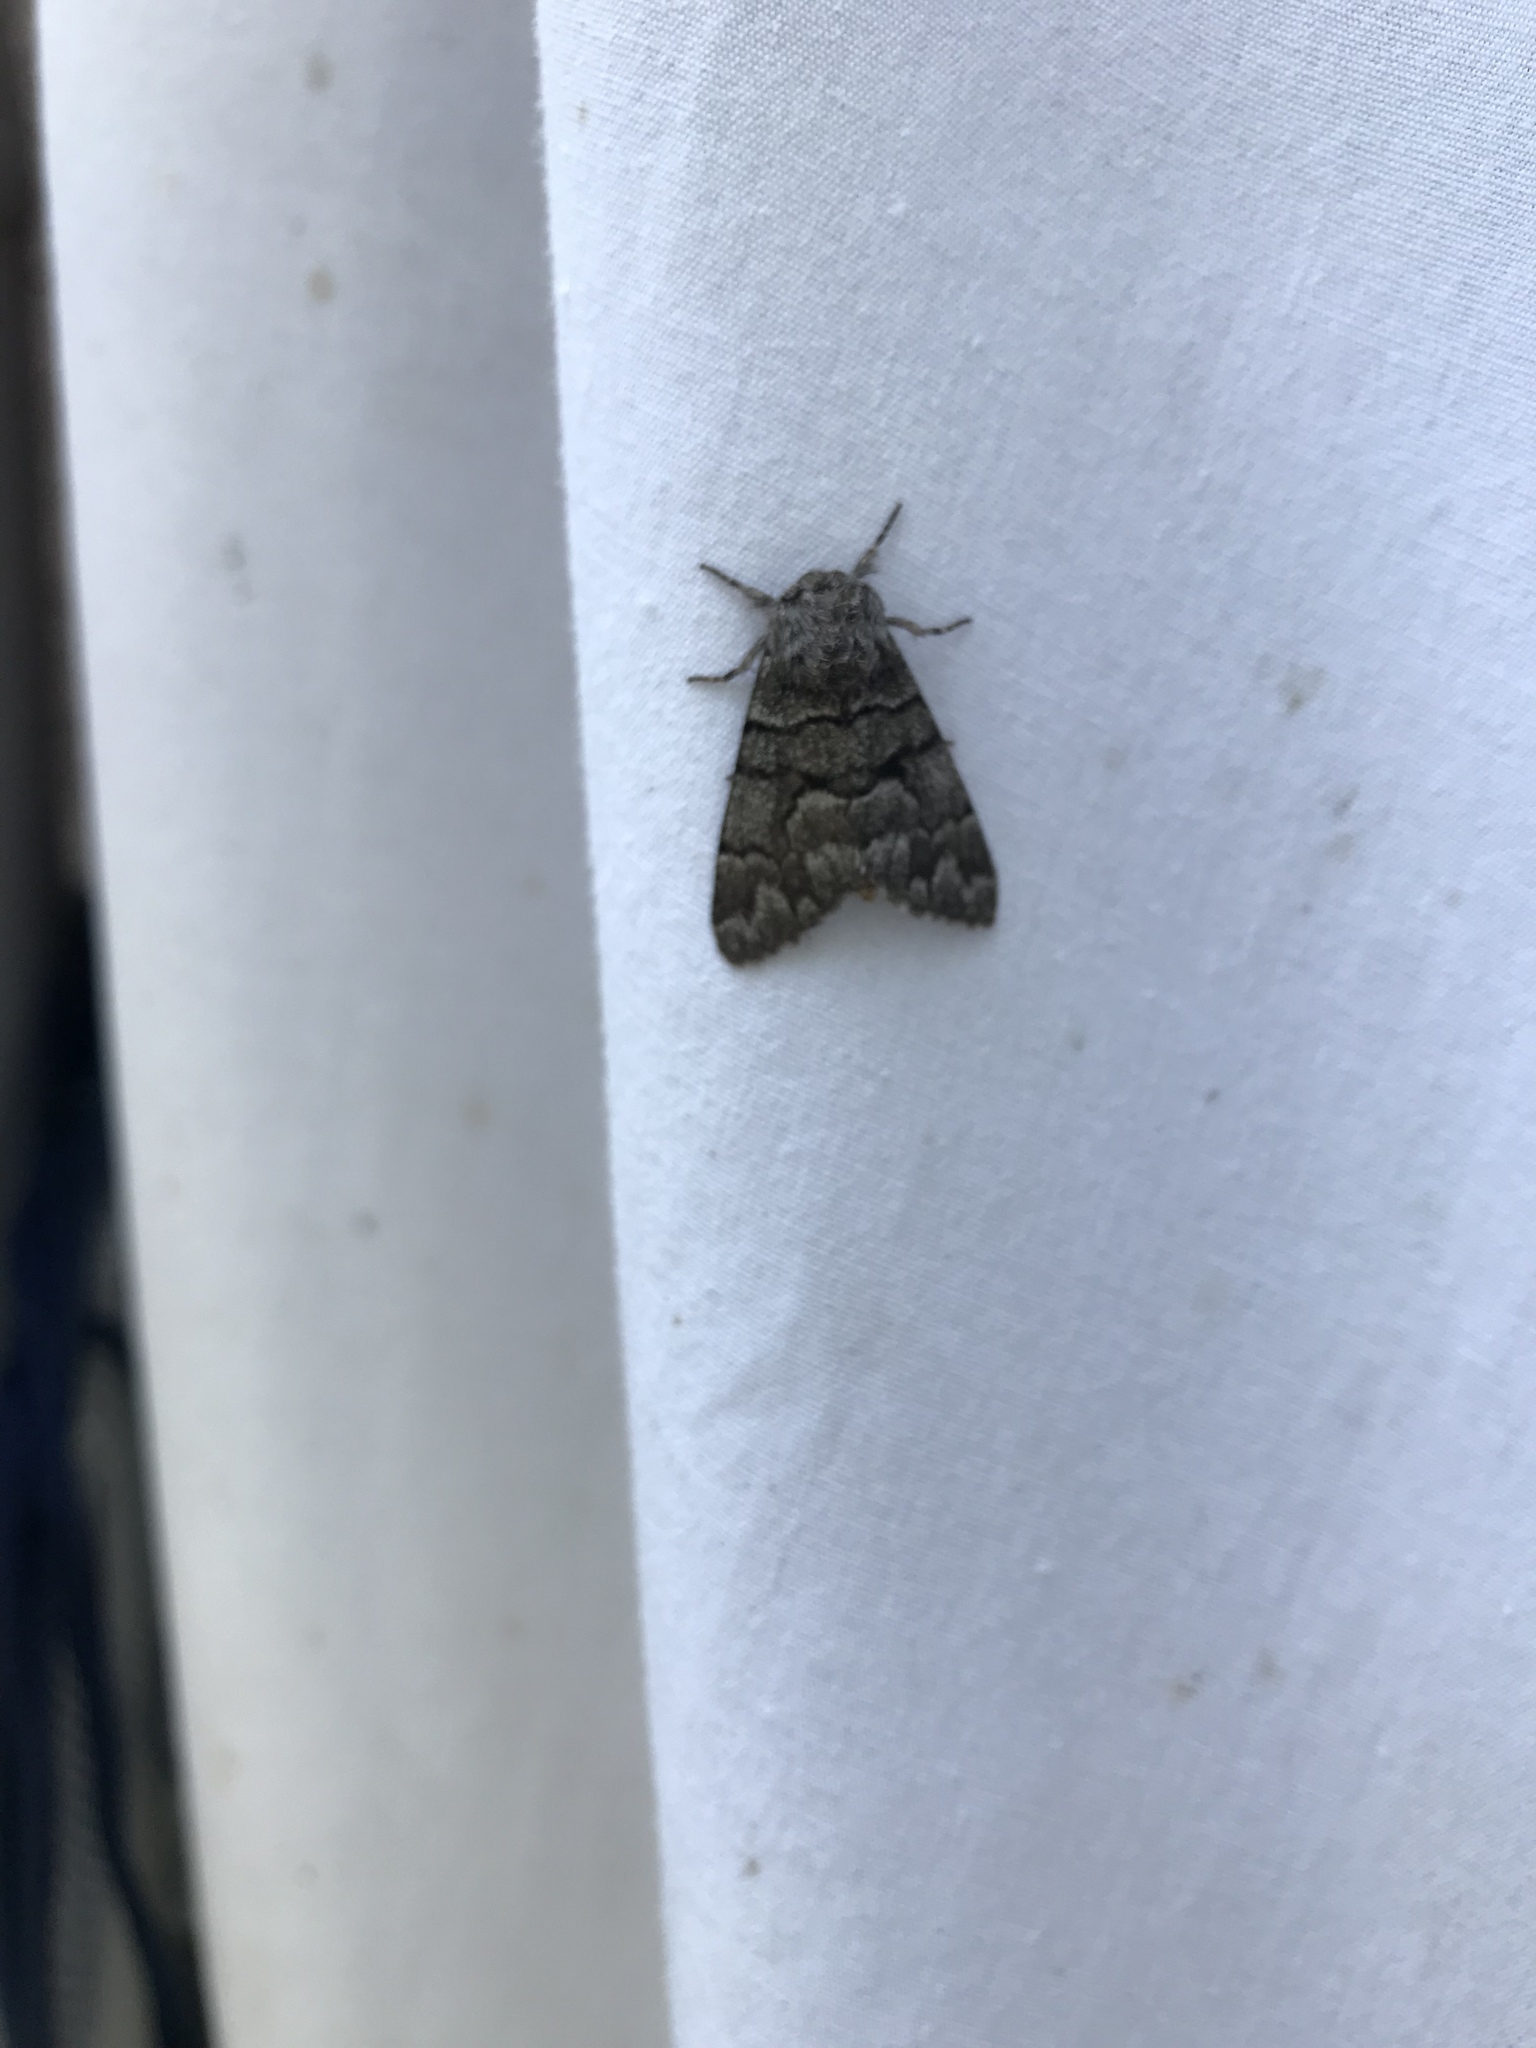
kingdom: Animalia
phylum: Arthropoda
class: Insecta
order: Lepidoptera
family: Noctuidae
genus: Panthea
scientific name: Panthea furcilla
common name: Eastern panthea moth
